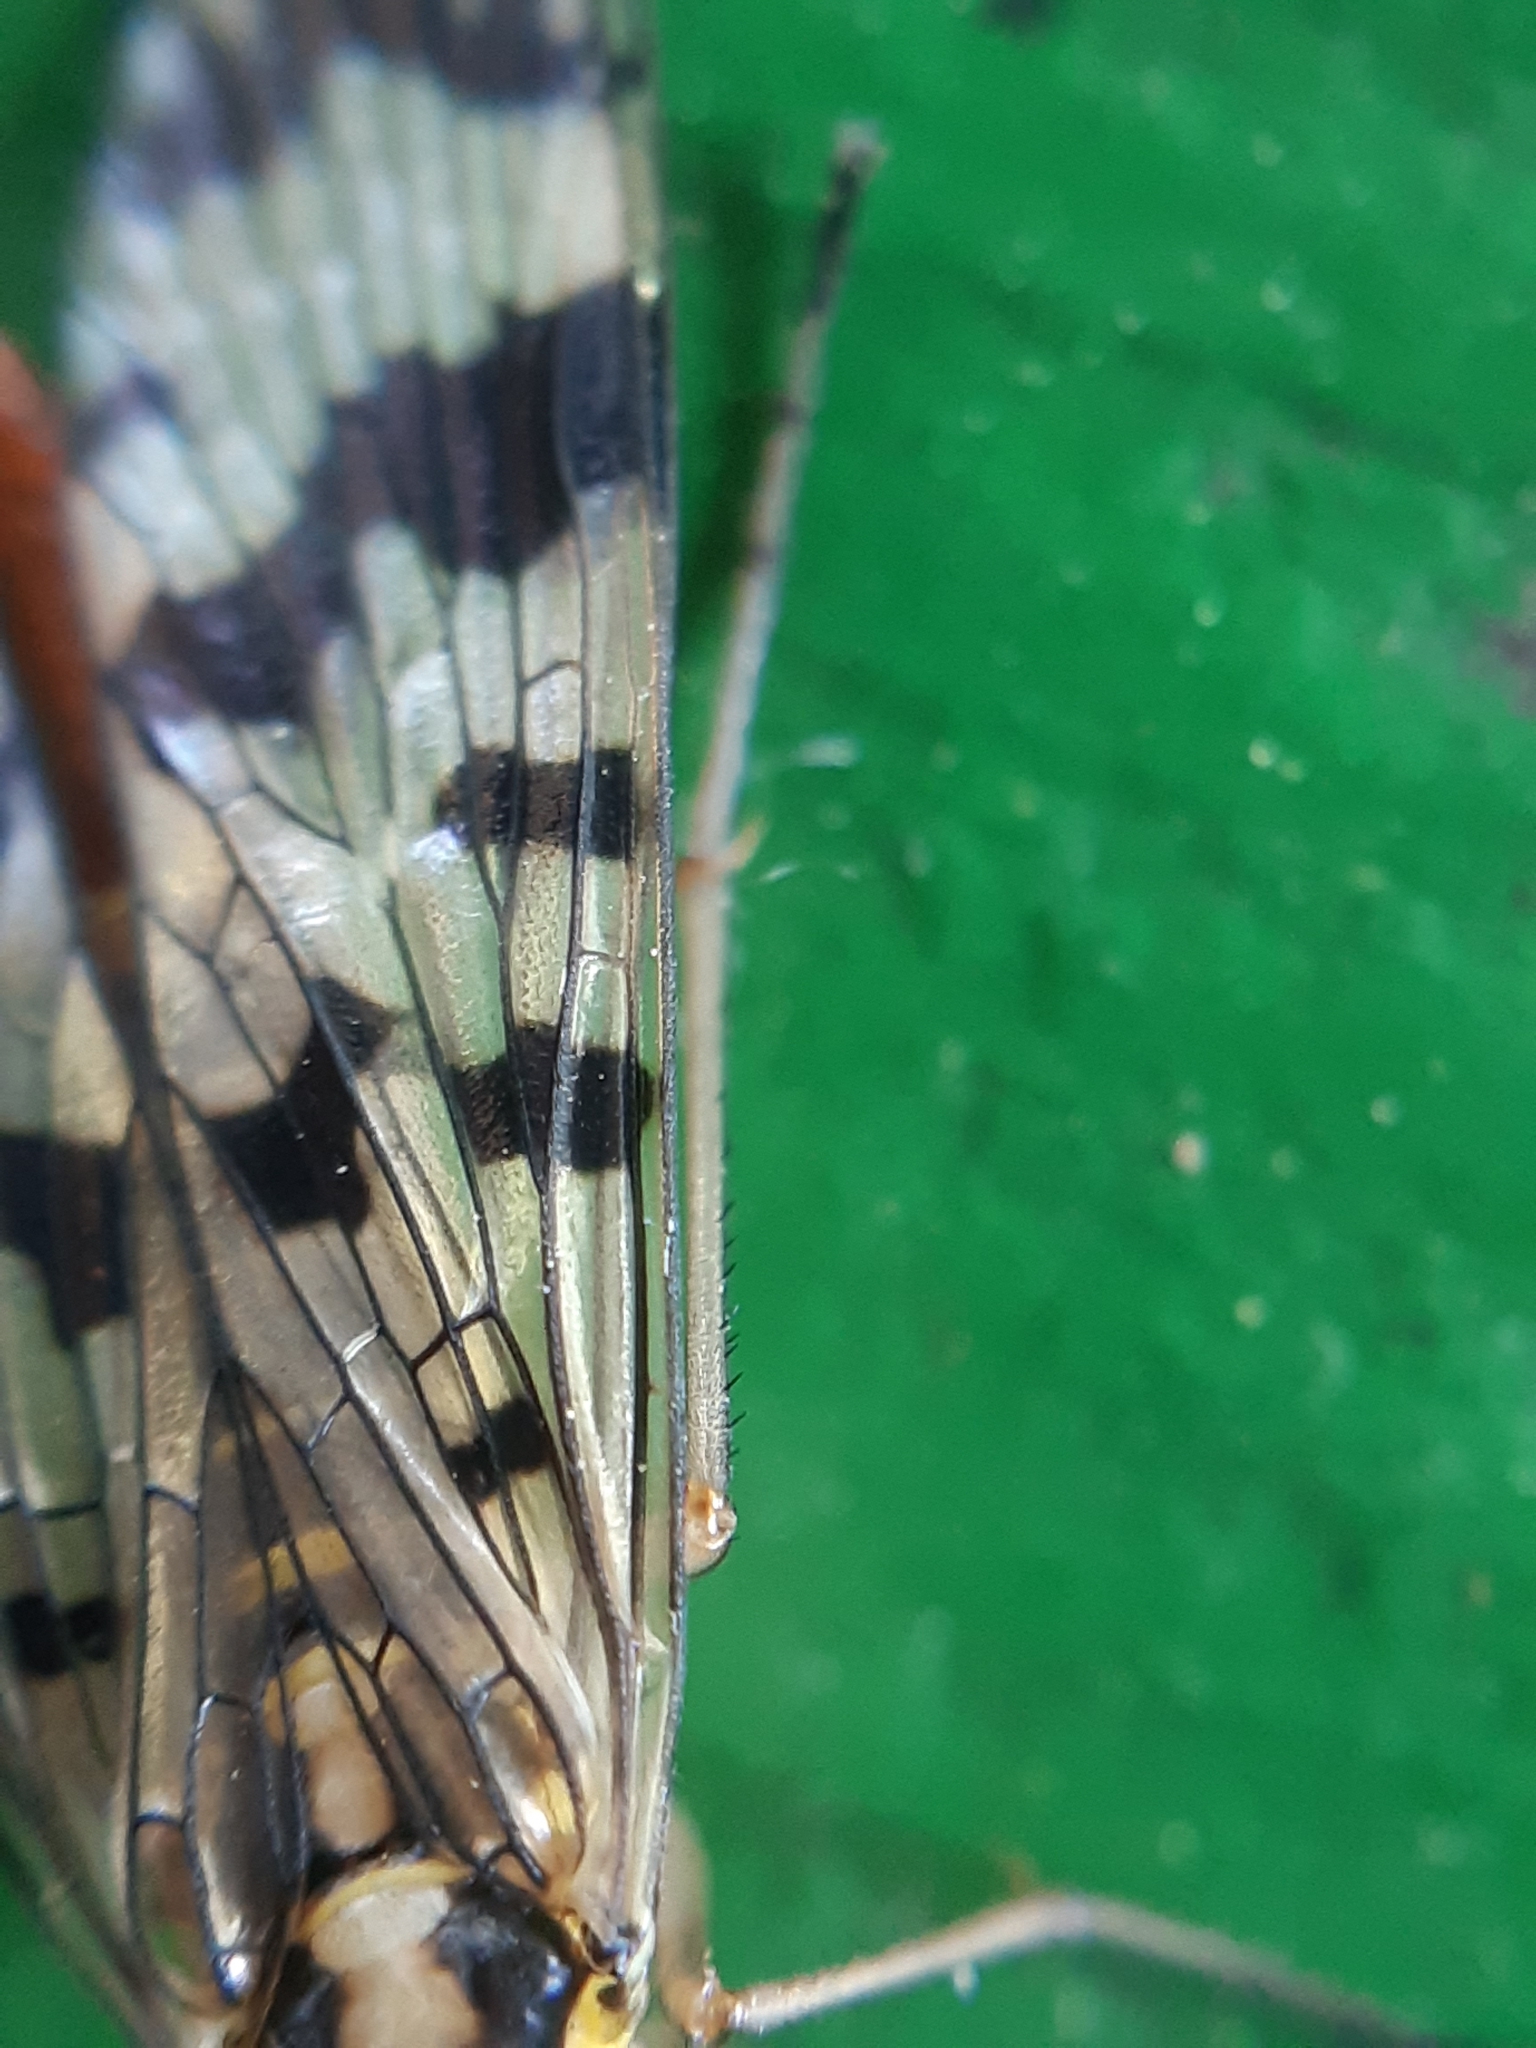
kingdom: Animalia
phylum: Arthropoda
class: Insecta
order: Mecoptera
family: Panorpidae
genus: Panorpa
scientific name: Panorpa communis
